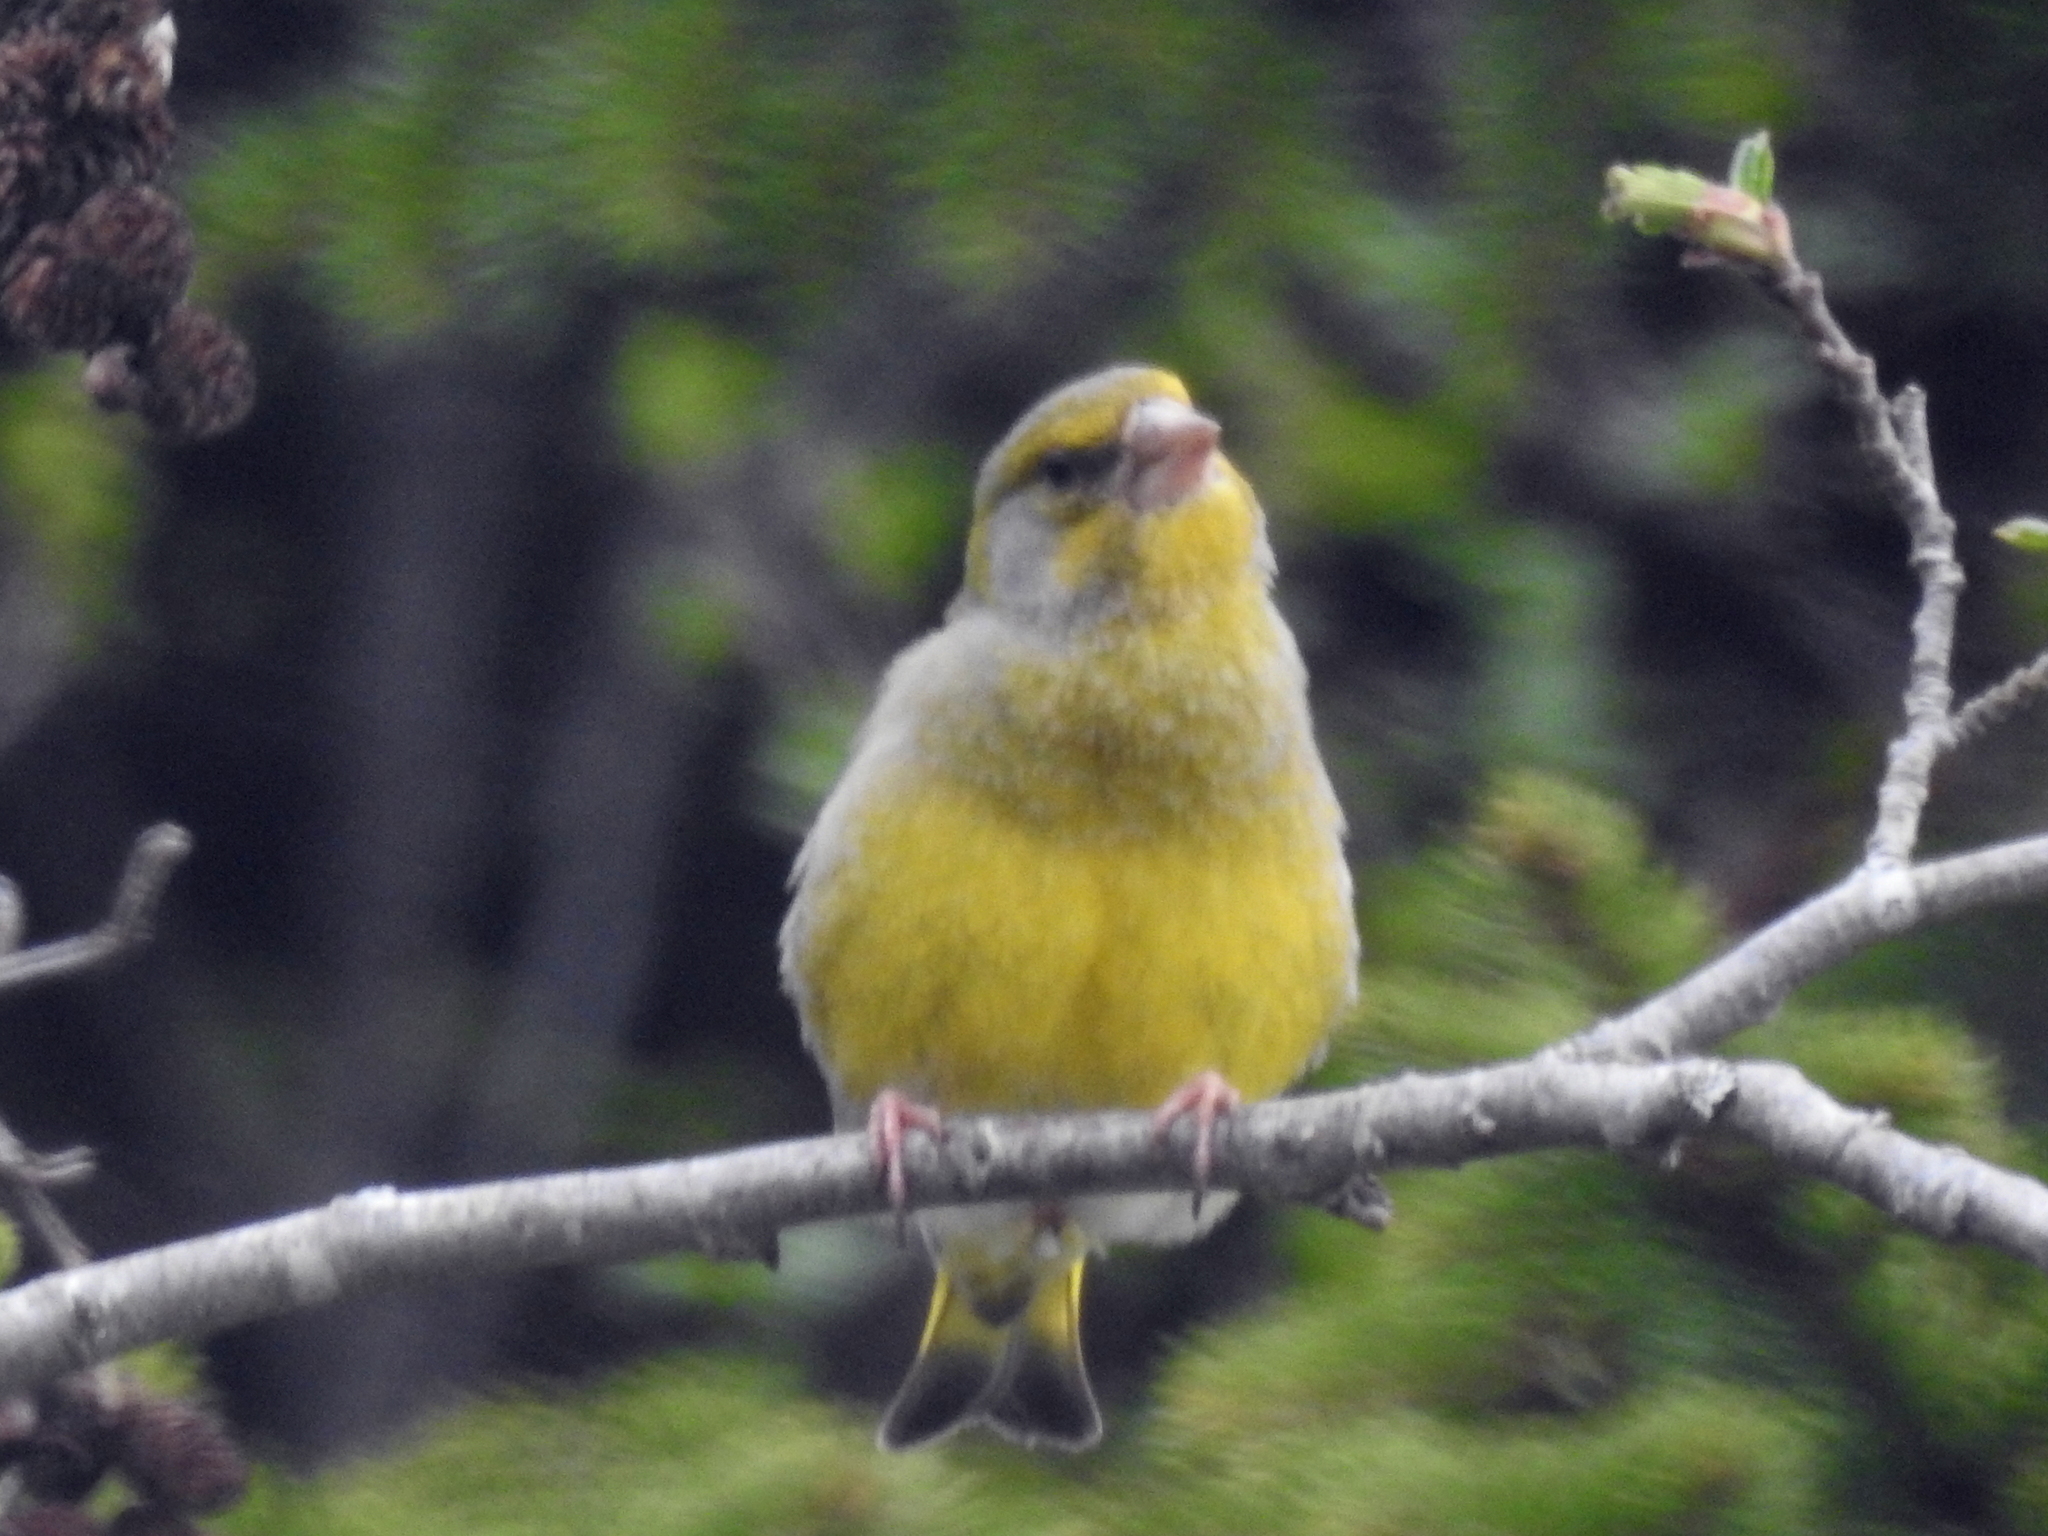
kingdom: Plantae
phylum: Tracheophyta
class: Liliopsida
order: Poales
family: Poaceae
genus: Chloris
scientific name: Chloris chloris
